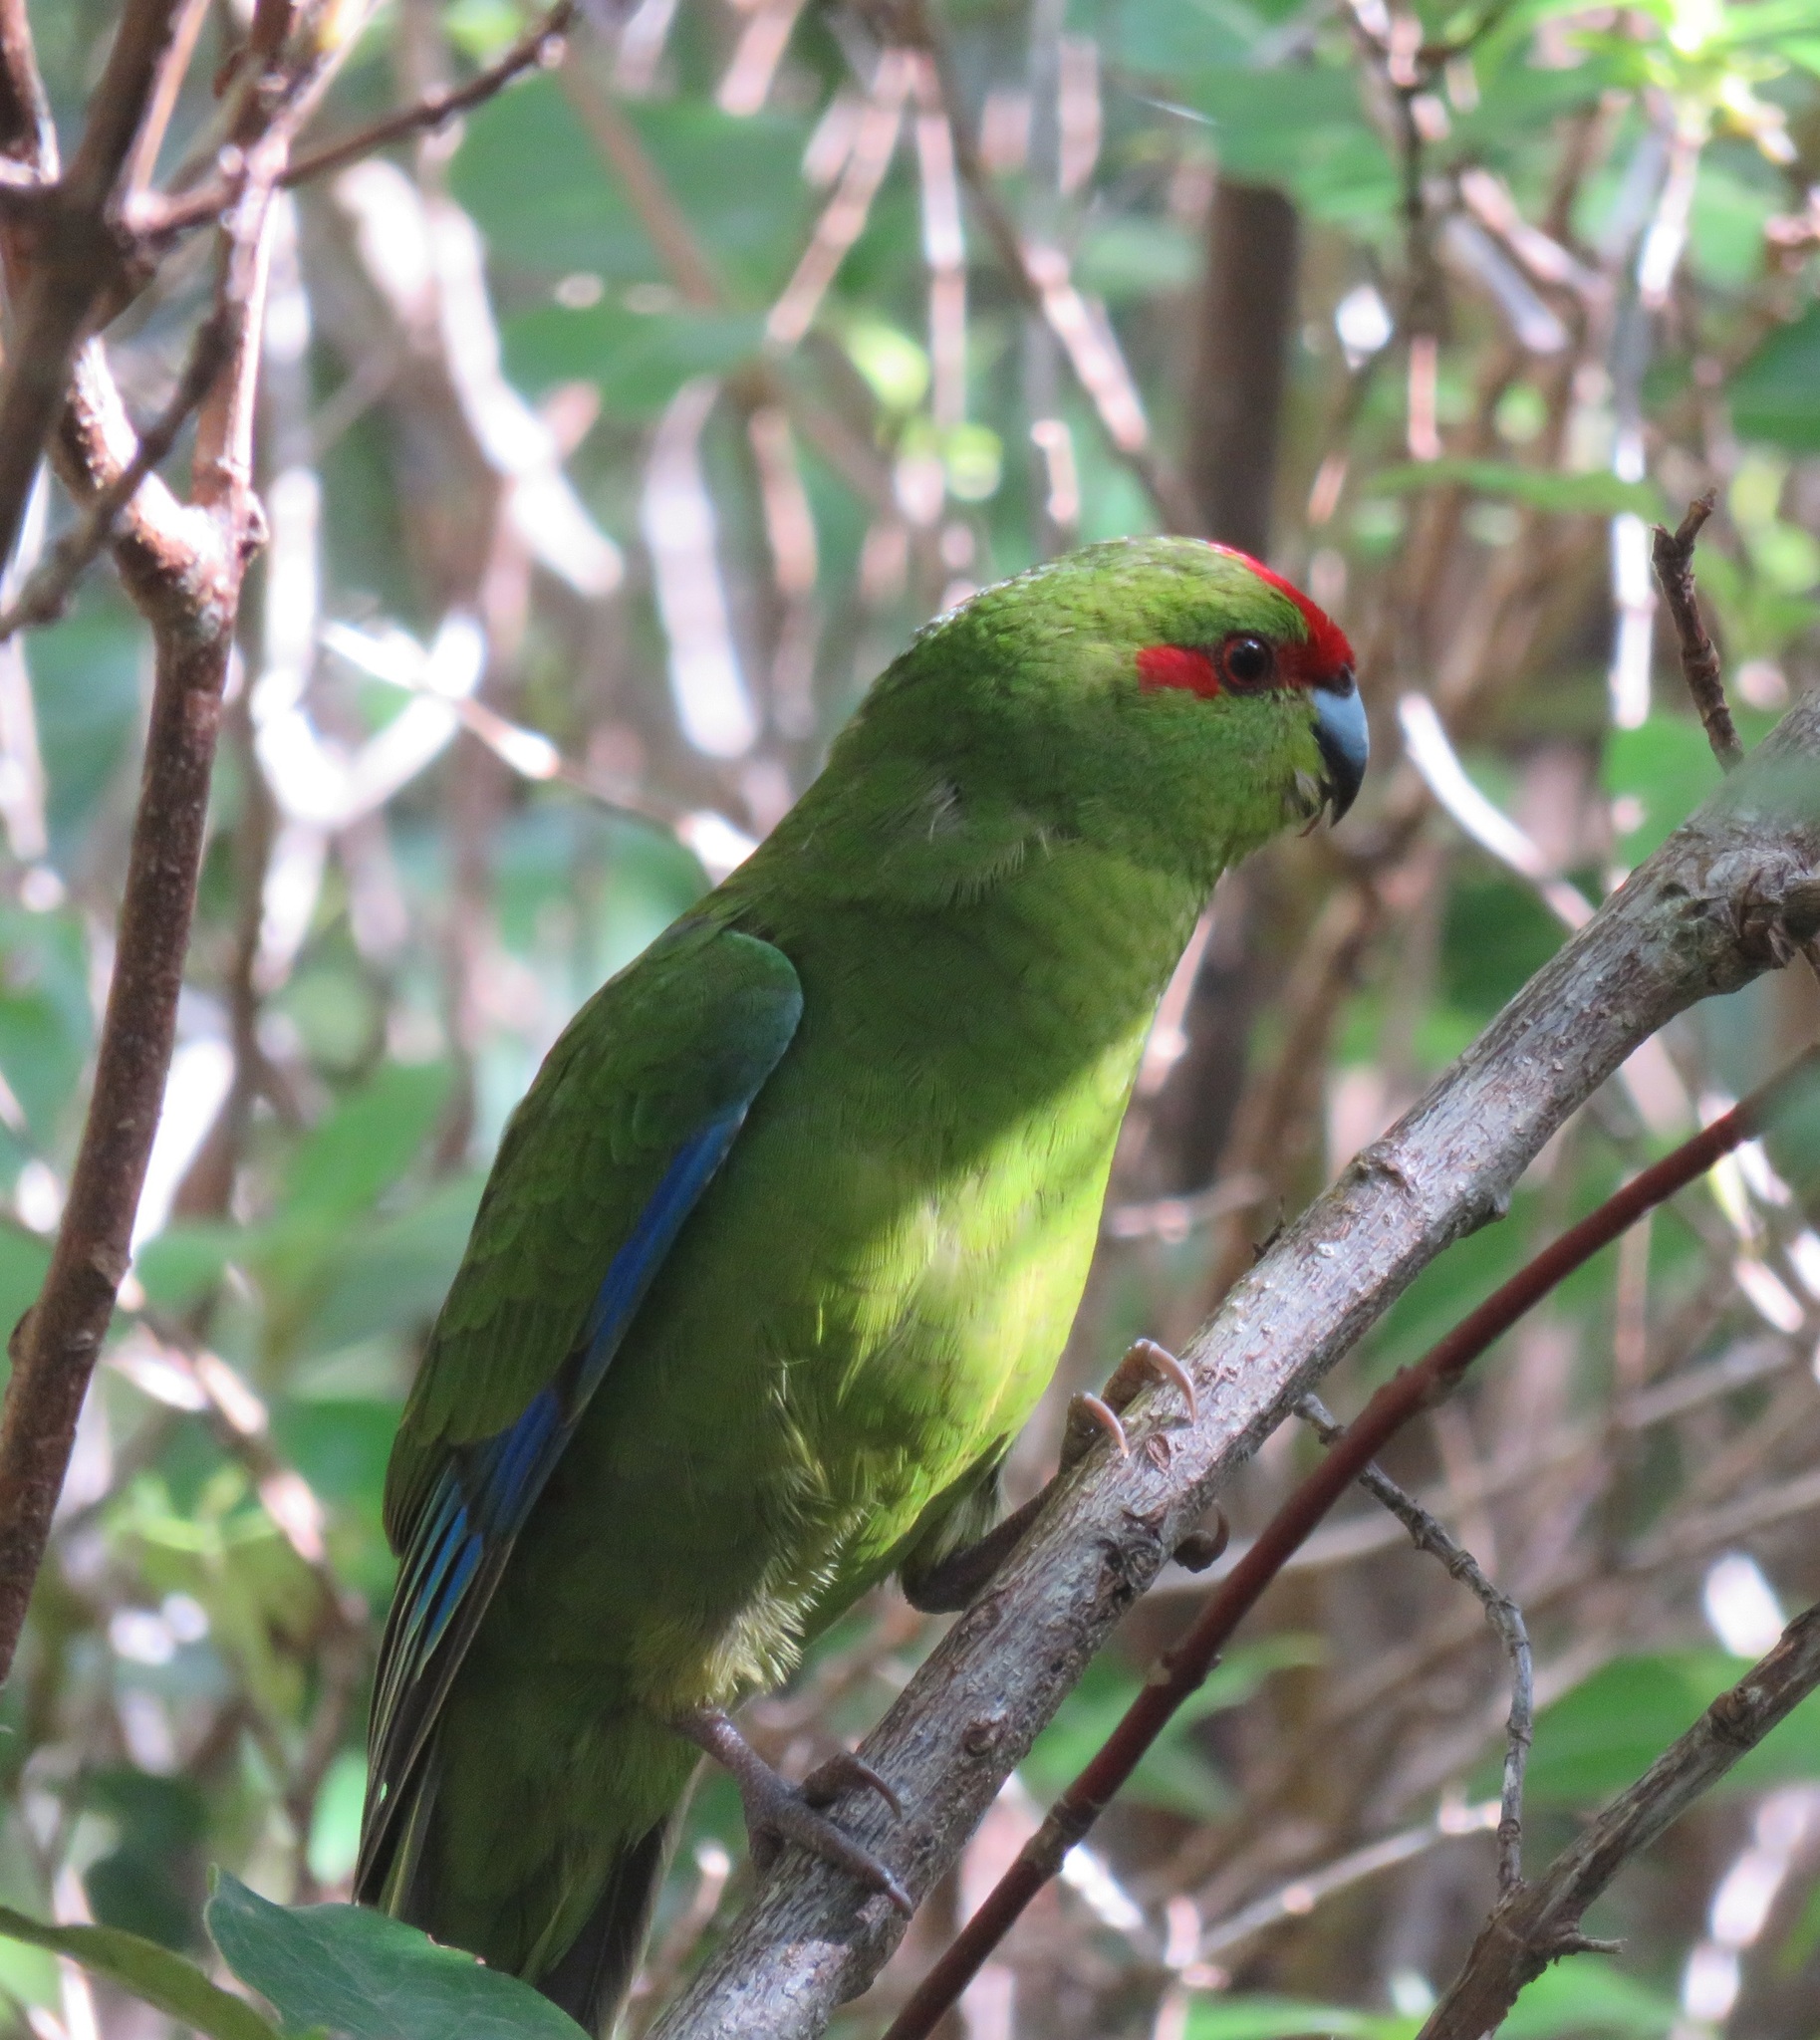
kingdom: Animalia
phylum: Chordata
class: Aves
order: Psittaciformes
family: Psittacidae
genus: Cyanoramphus
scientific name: Cyanoramphus novaezelandiae
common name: Red-fronted parakeet
